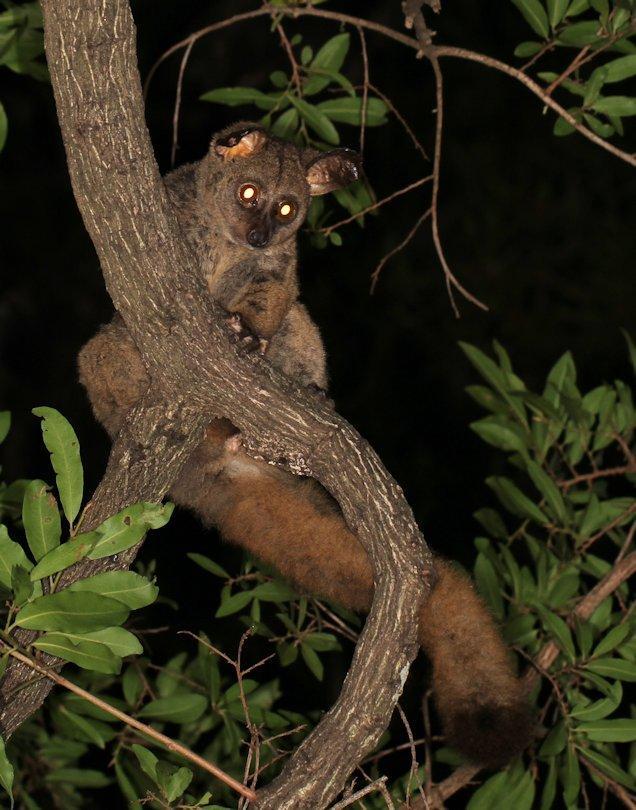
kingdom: Animalia
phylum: Chordata
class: Mammalia
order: Primates
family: Galagidae
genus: Otolemur
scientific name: Otolemur crassicaudatus
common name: Brown greater galago
